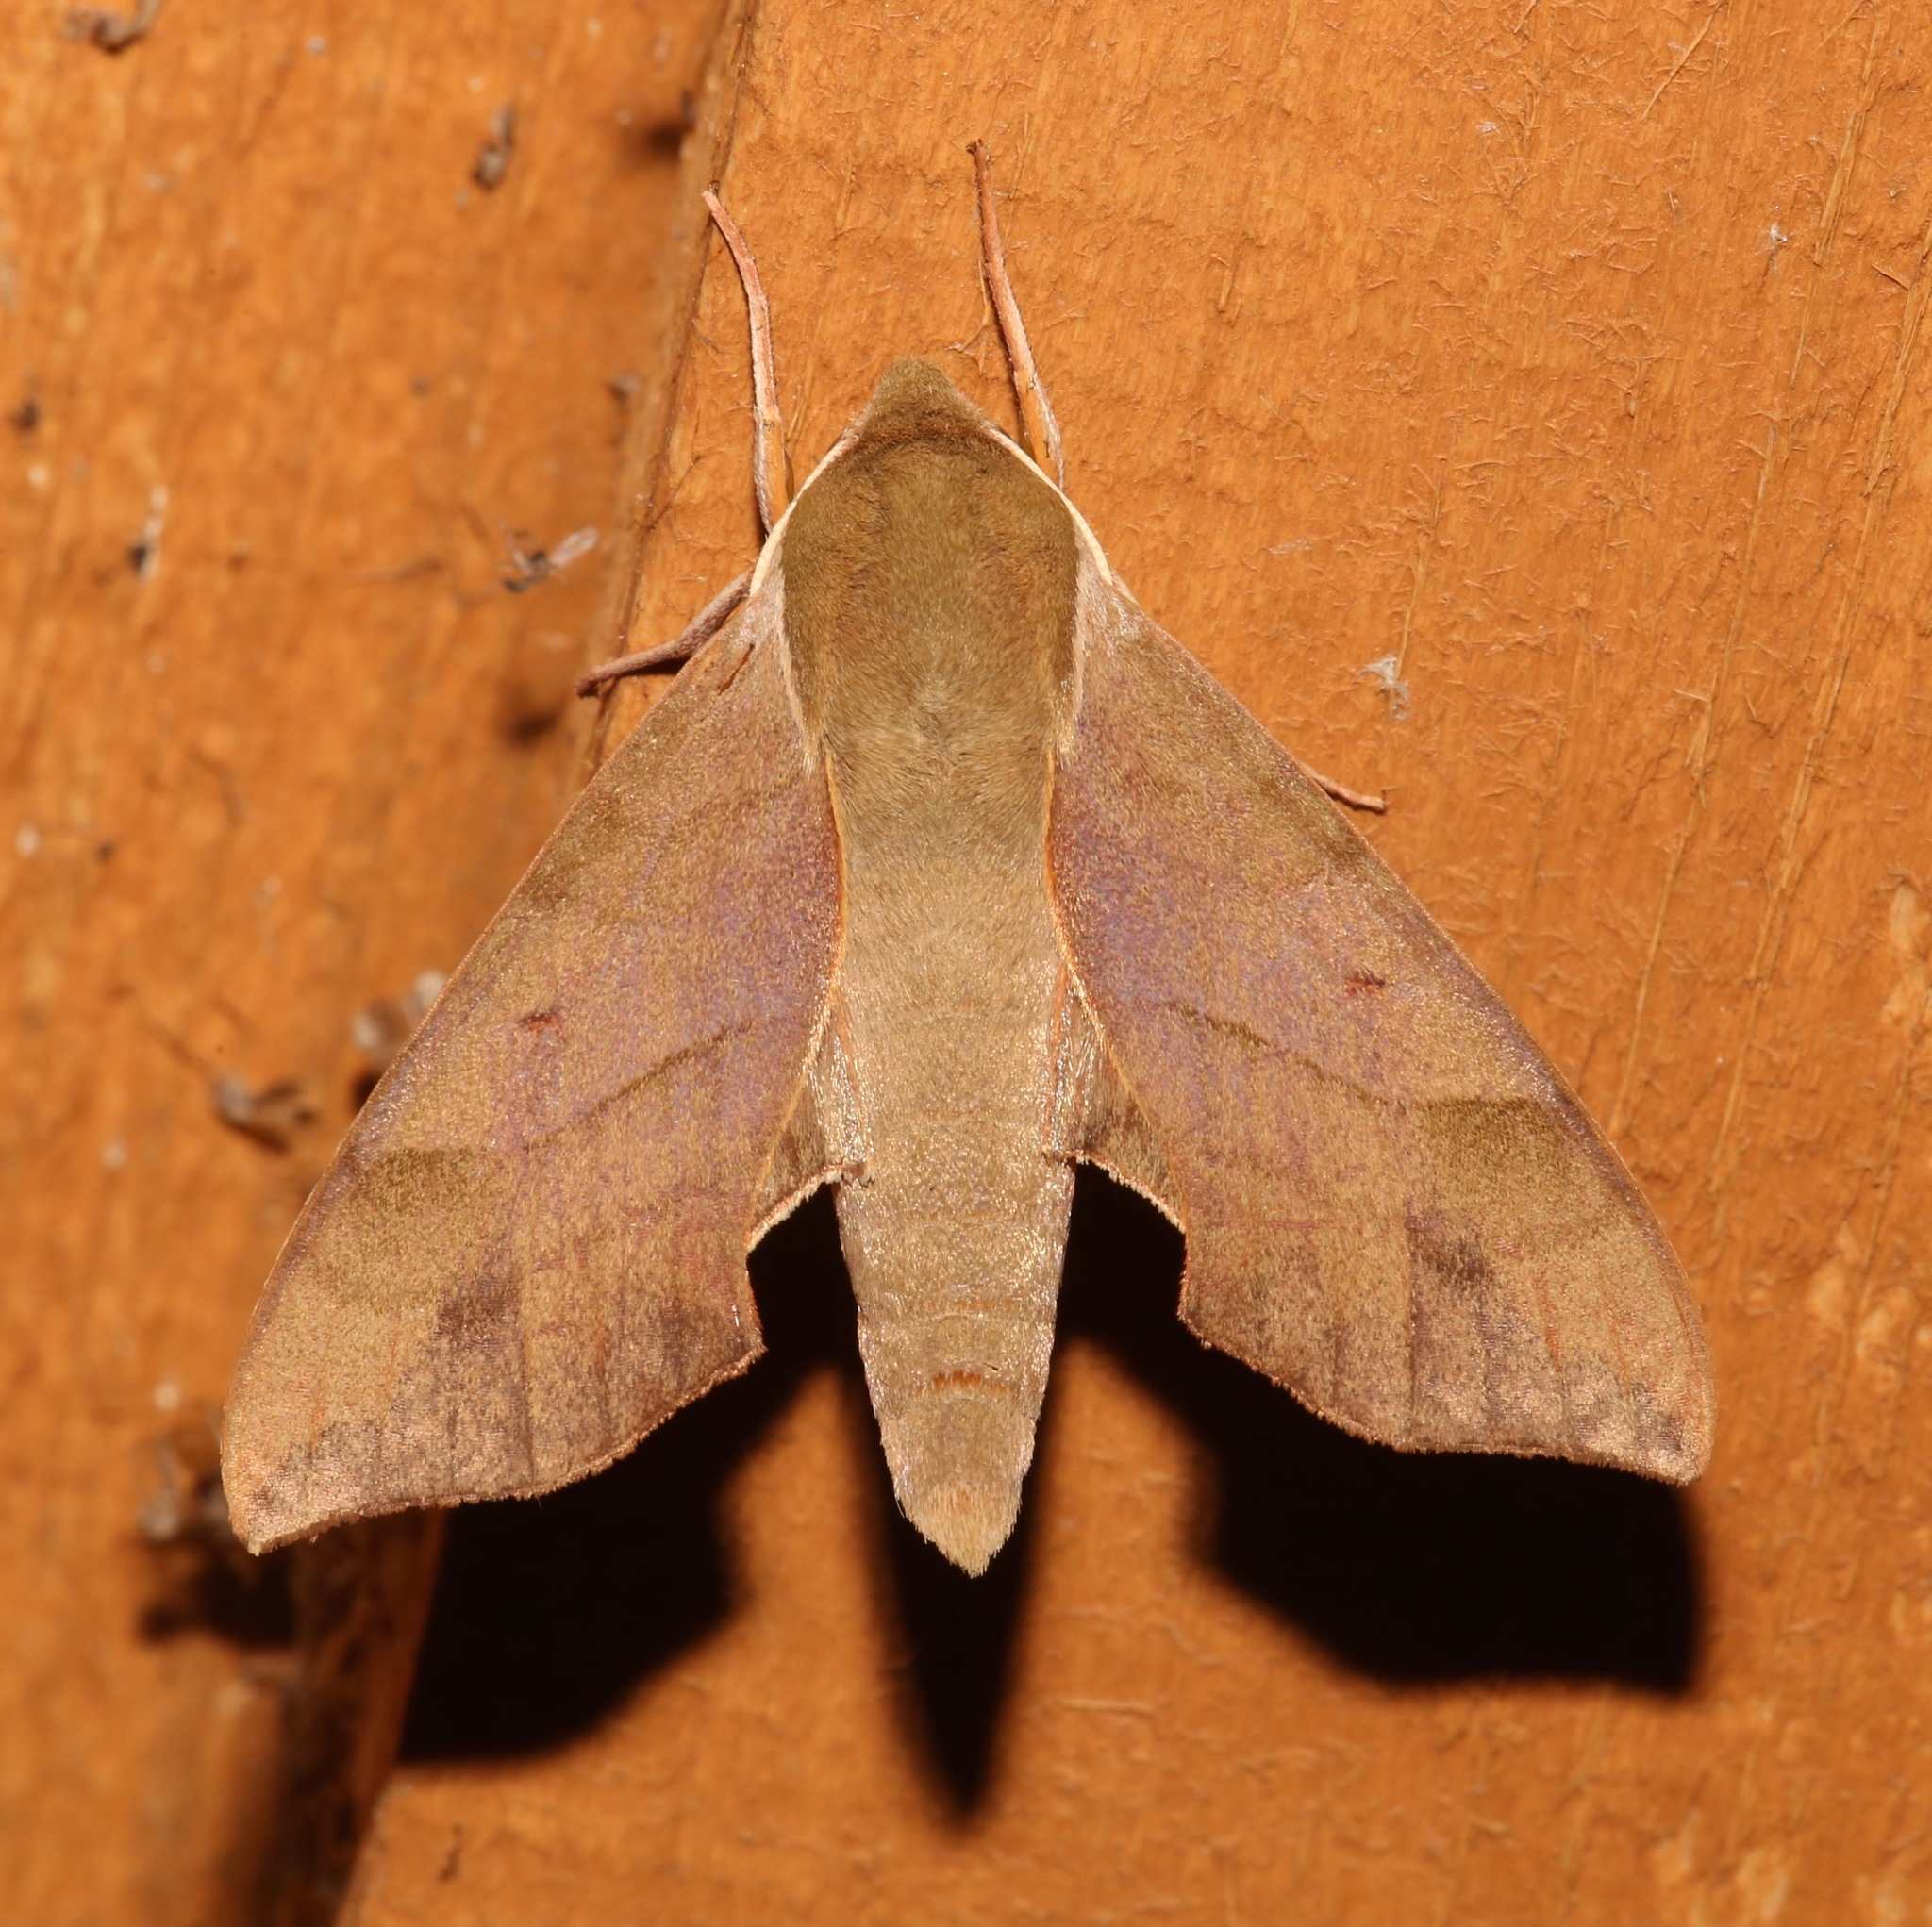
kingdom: Animalia
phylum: Arthropoda
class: Insecta
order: Lepidoptera
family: Sphingidae
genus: Darapsa
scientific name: Darapsa myron
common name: Hog sphinx
